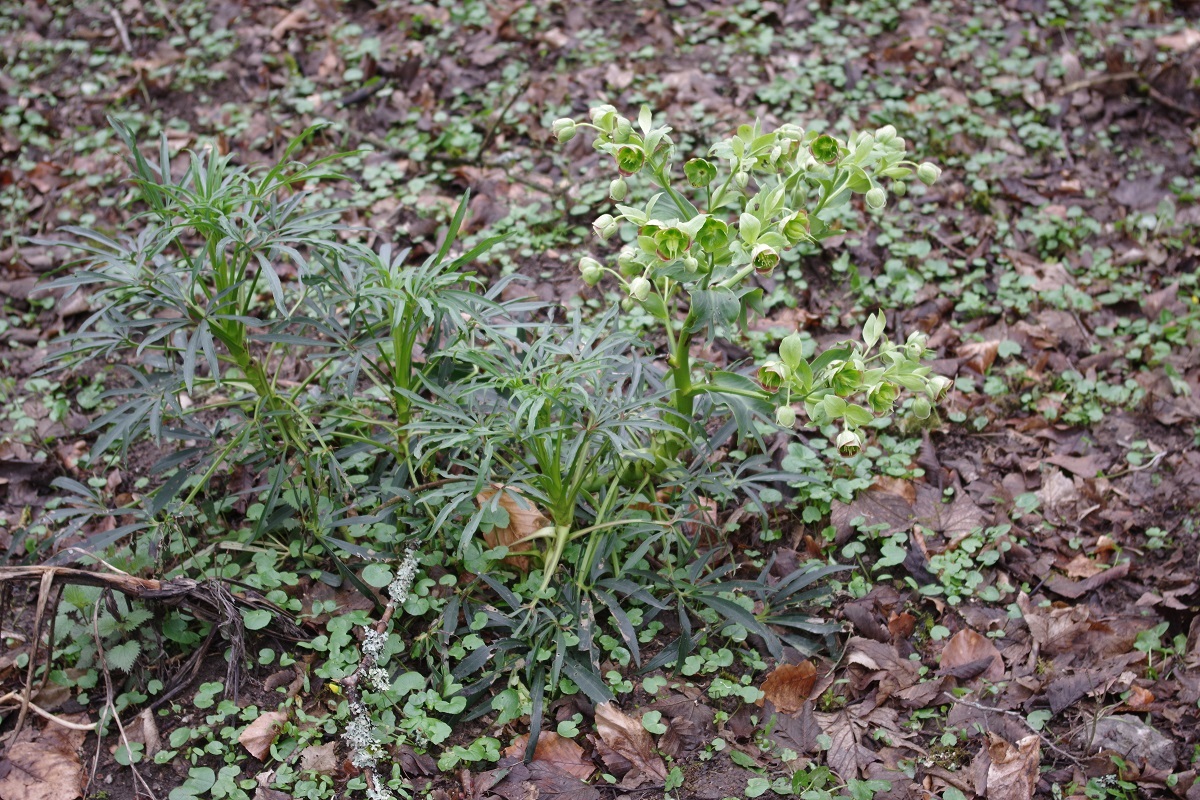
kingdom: Plantae
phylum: Tracheophyta
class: Magnoliopsida
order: Ranunculales
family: Ranunculaceae
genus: Helleborus
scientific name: Helleborus foetidus
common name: Stinking hellebore
